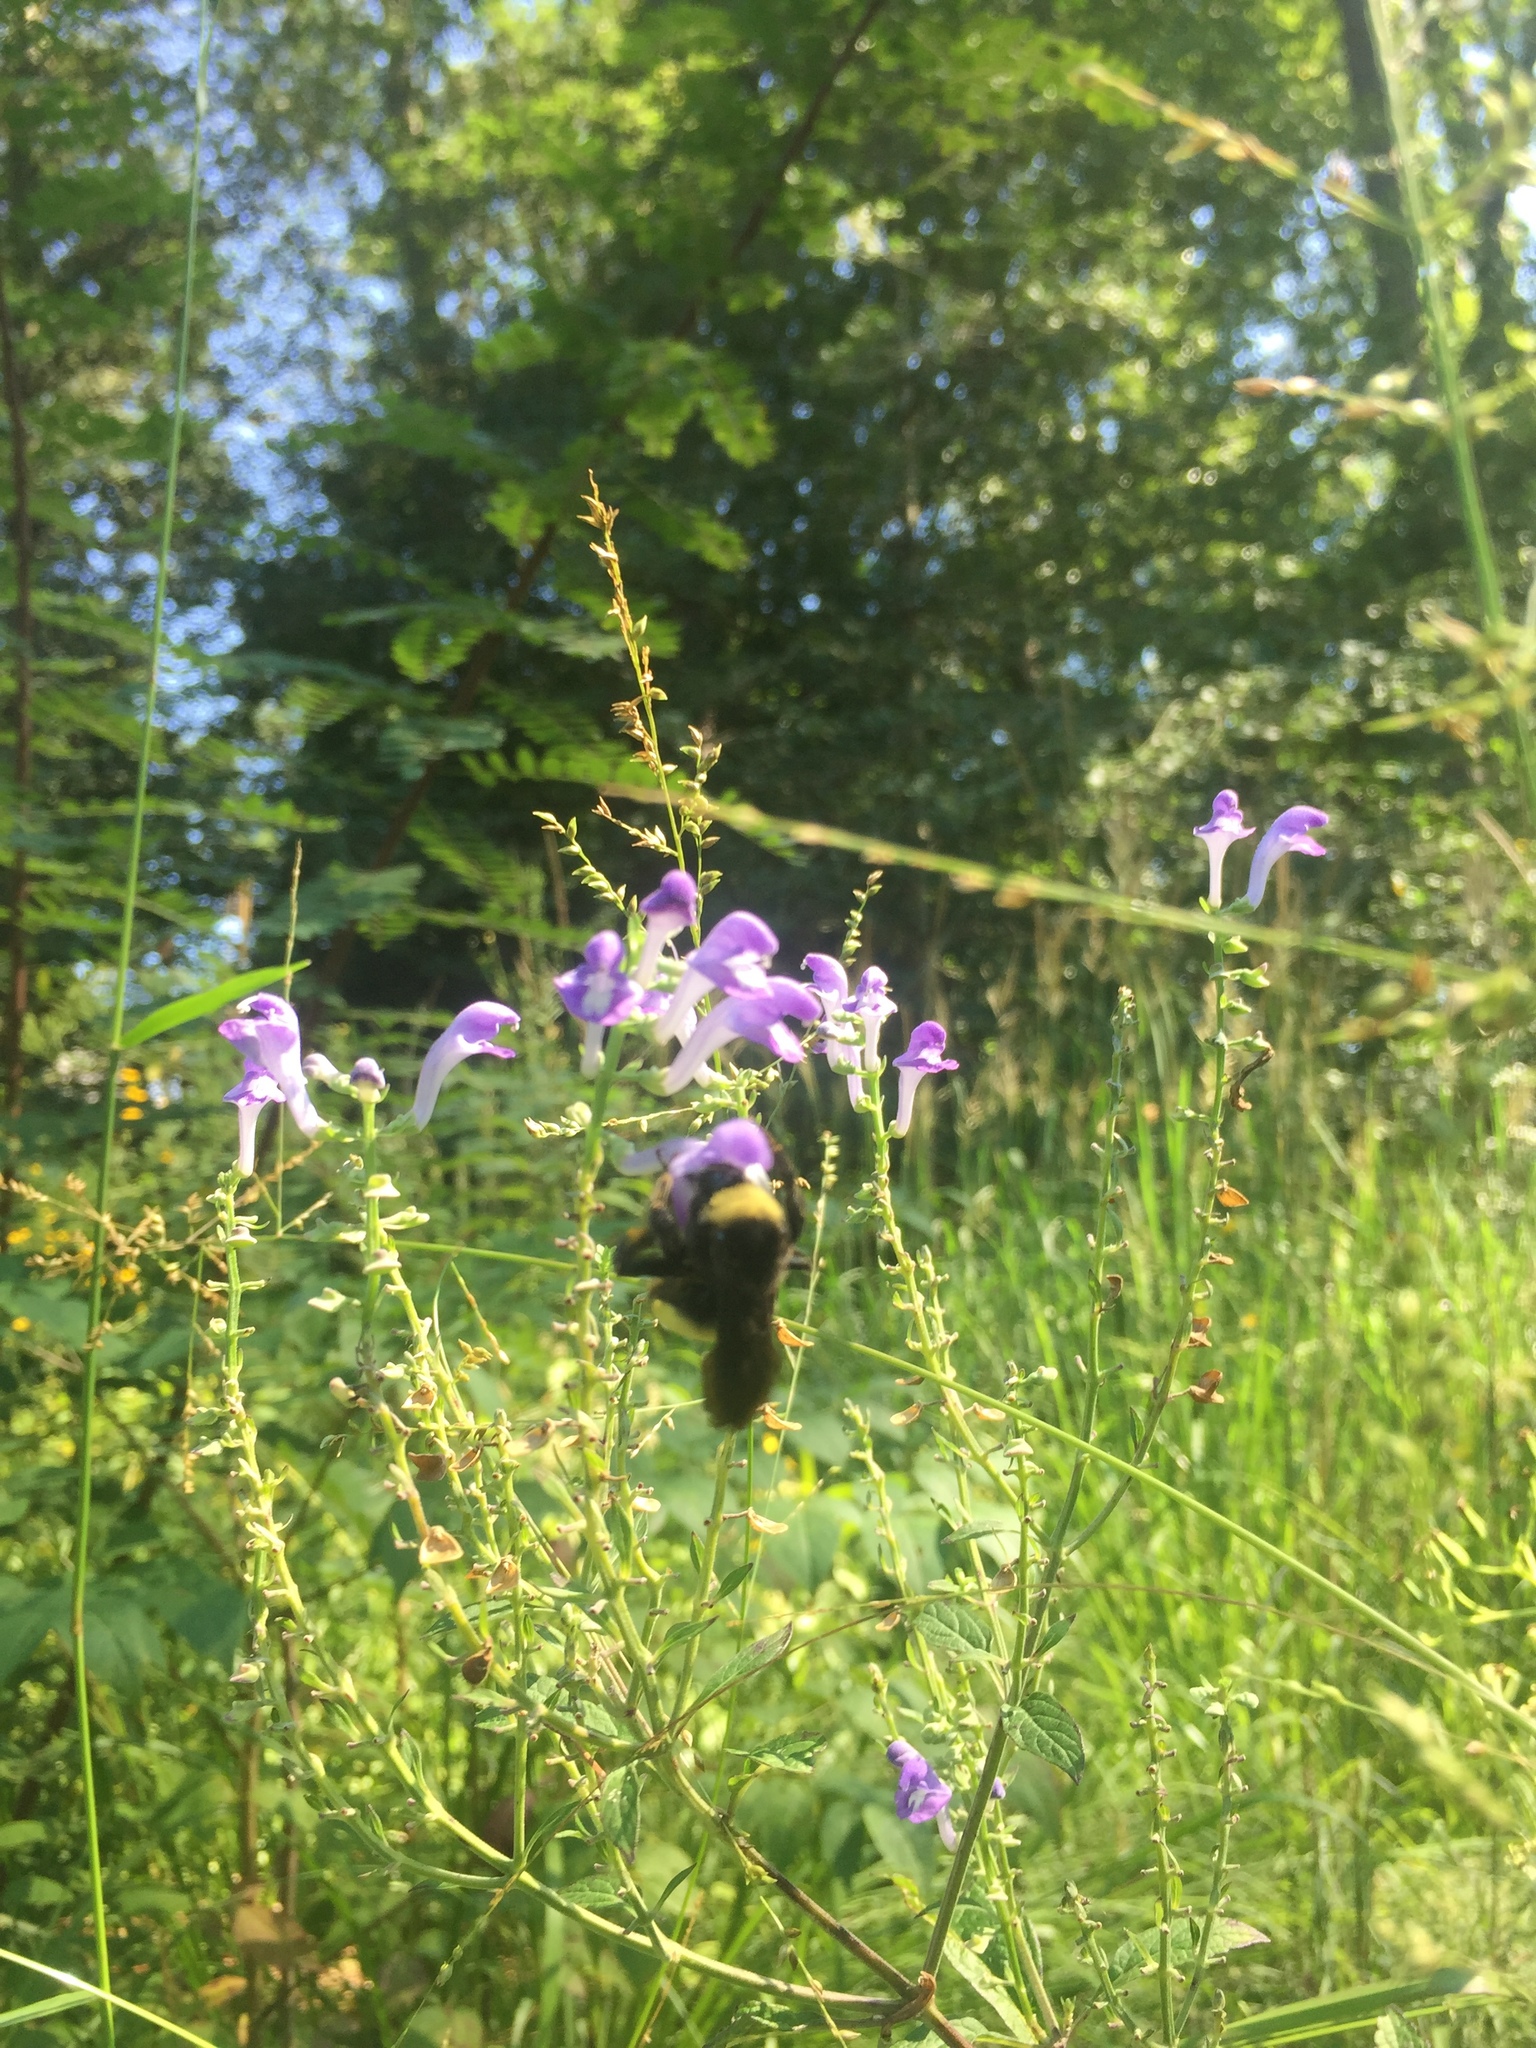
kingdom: Animalia
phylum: Arthropoda
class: Insecta
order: Hymenoptera
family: Apidae
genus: Bombus
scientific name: Bombus pensylvanicus
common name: Bumble bee
